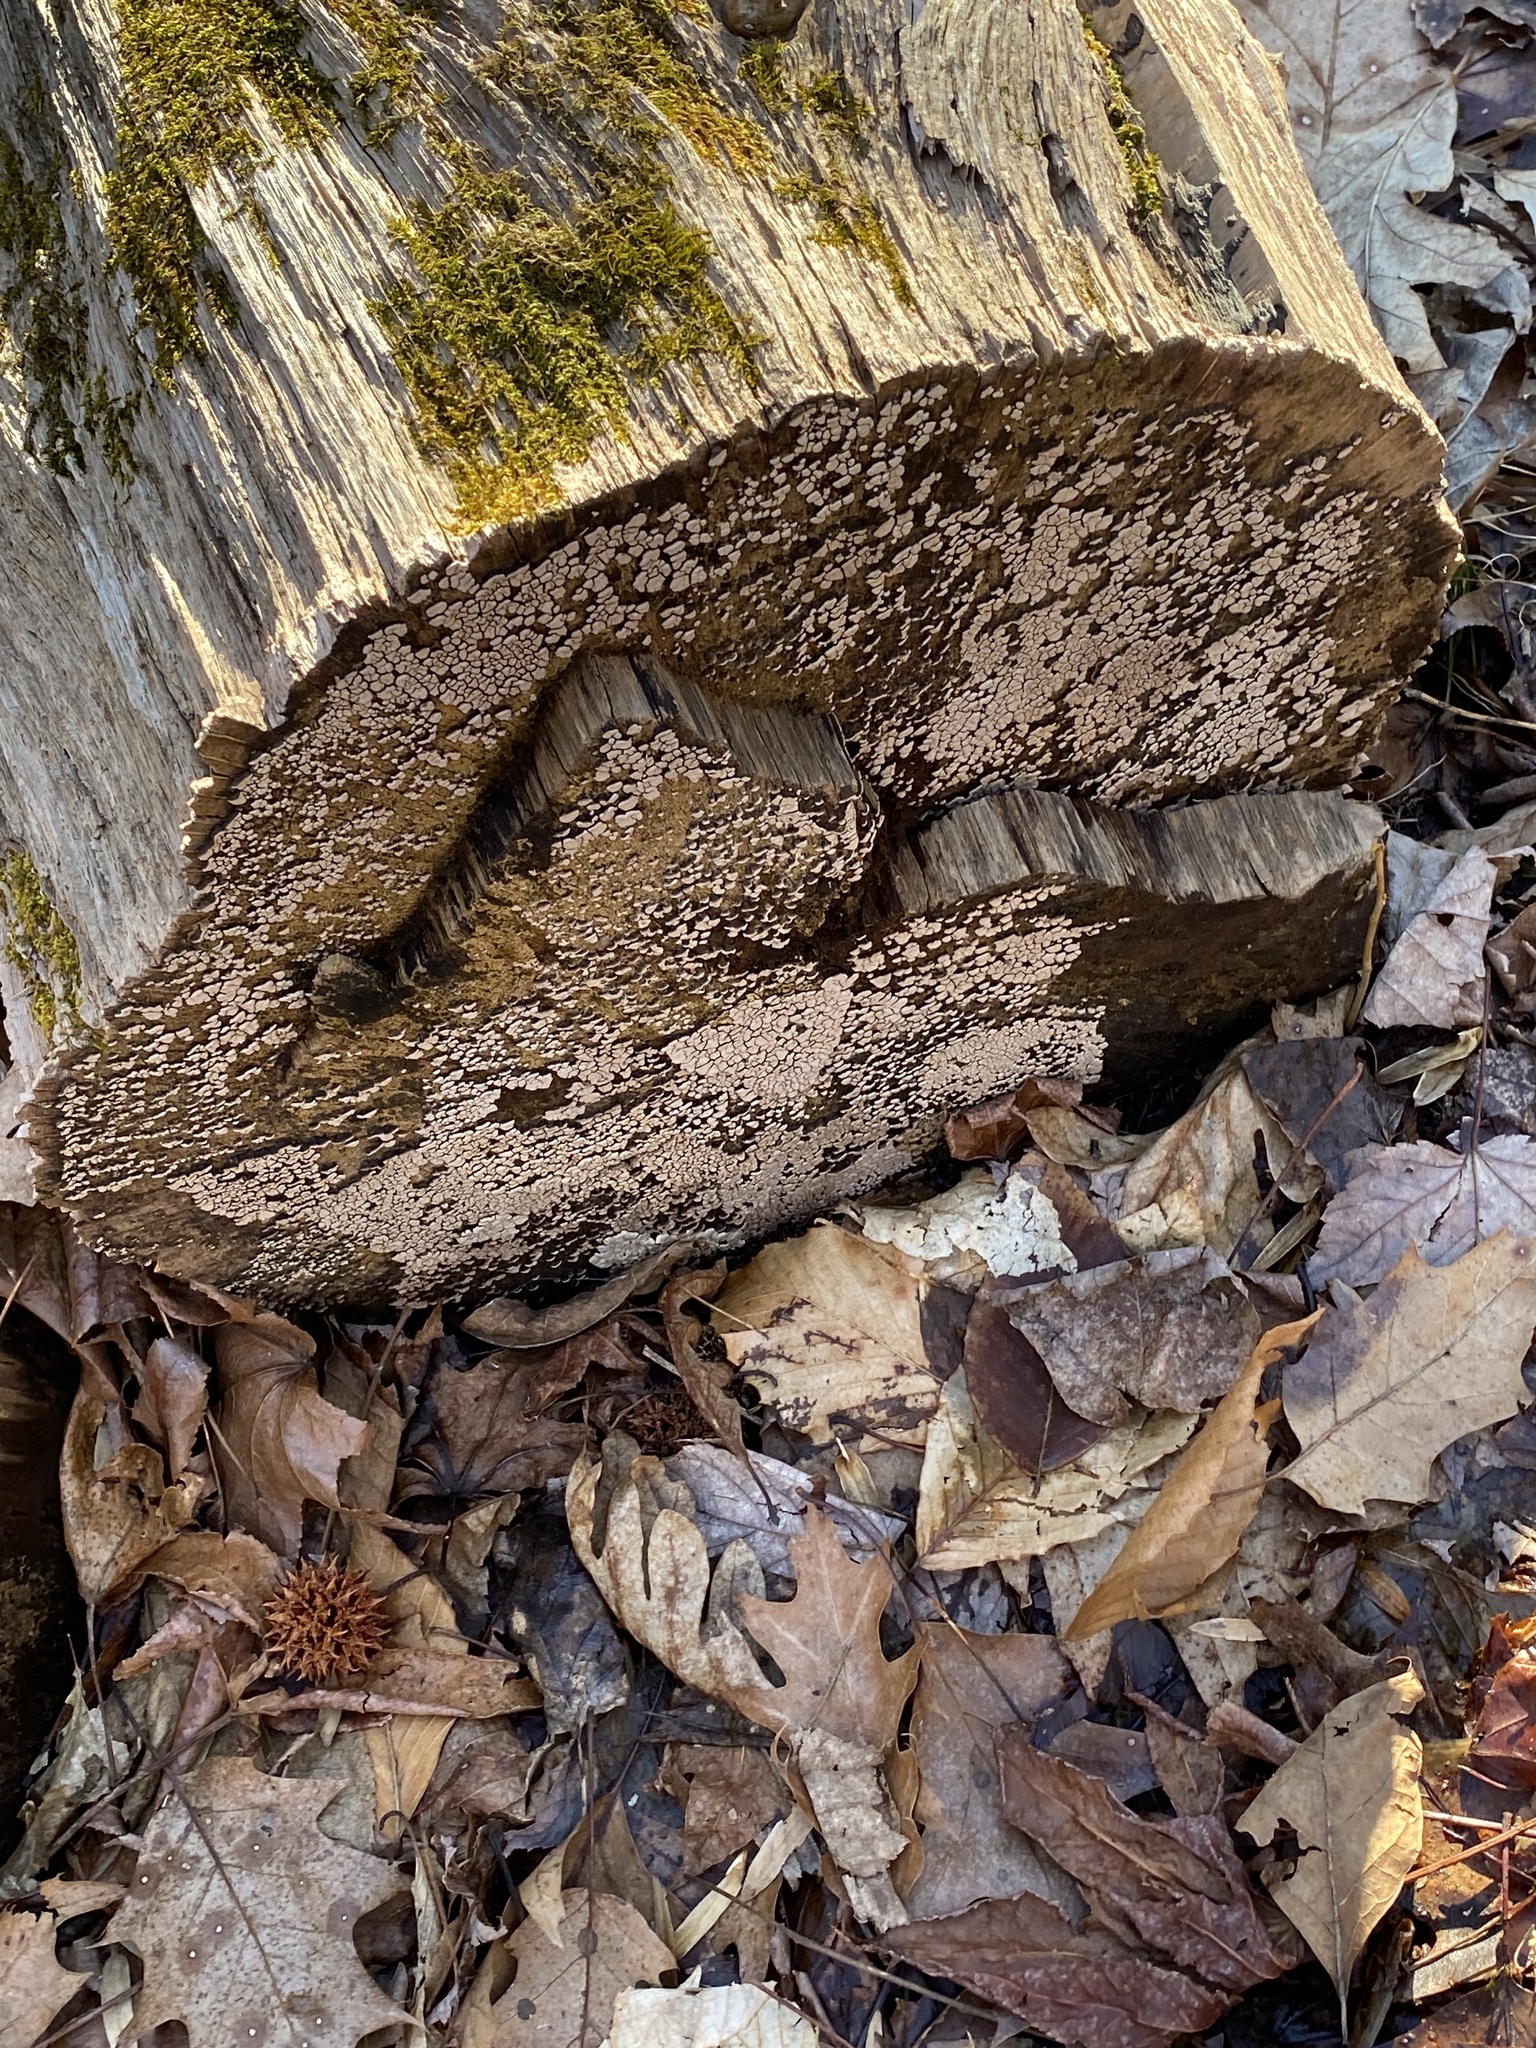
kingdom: Fungi
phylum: Basidiomycota
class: Agaricomycetes
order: Russulales
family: Stereaceae
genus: Xylobolus
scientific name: Xylobolus frustulatus
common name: Ceramic parchment
